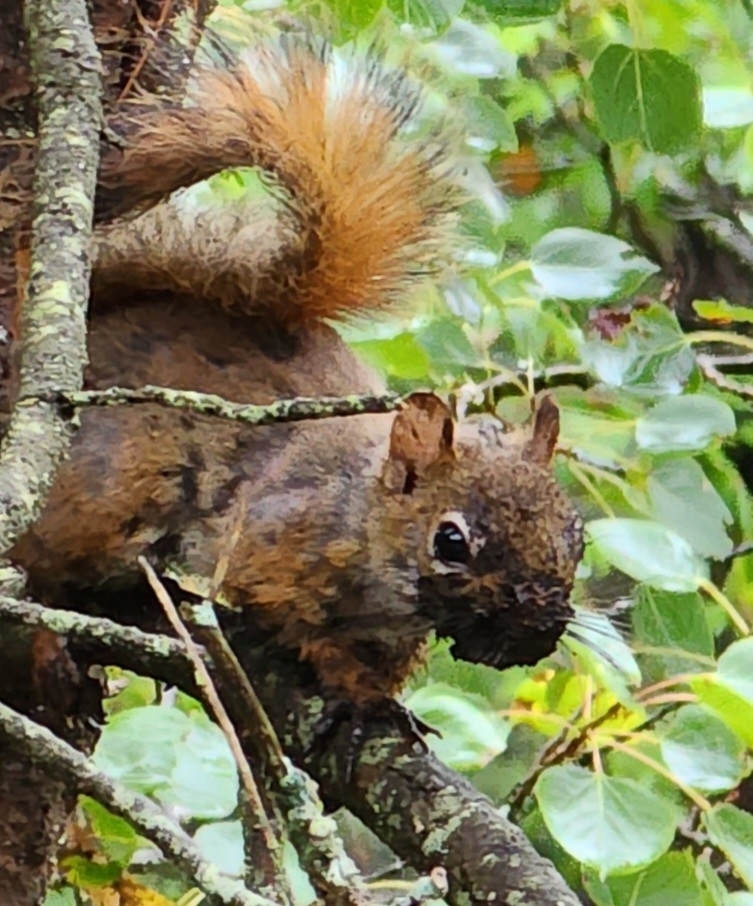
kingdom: Animalia
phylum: Chordata
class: Mammalia
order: Rodentia
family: Sciuridae
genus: Tamiasciurus
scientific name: Tamiasciurus hudsonicus
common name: Red squirrel
